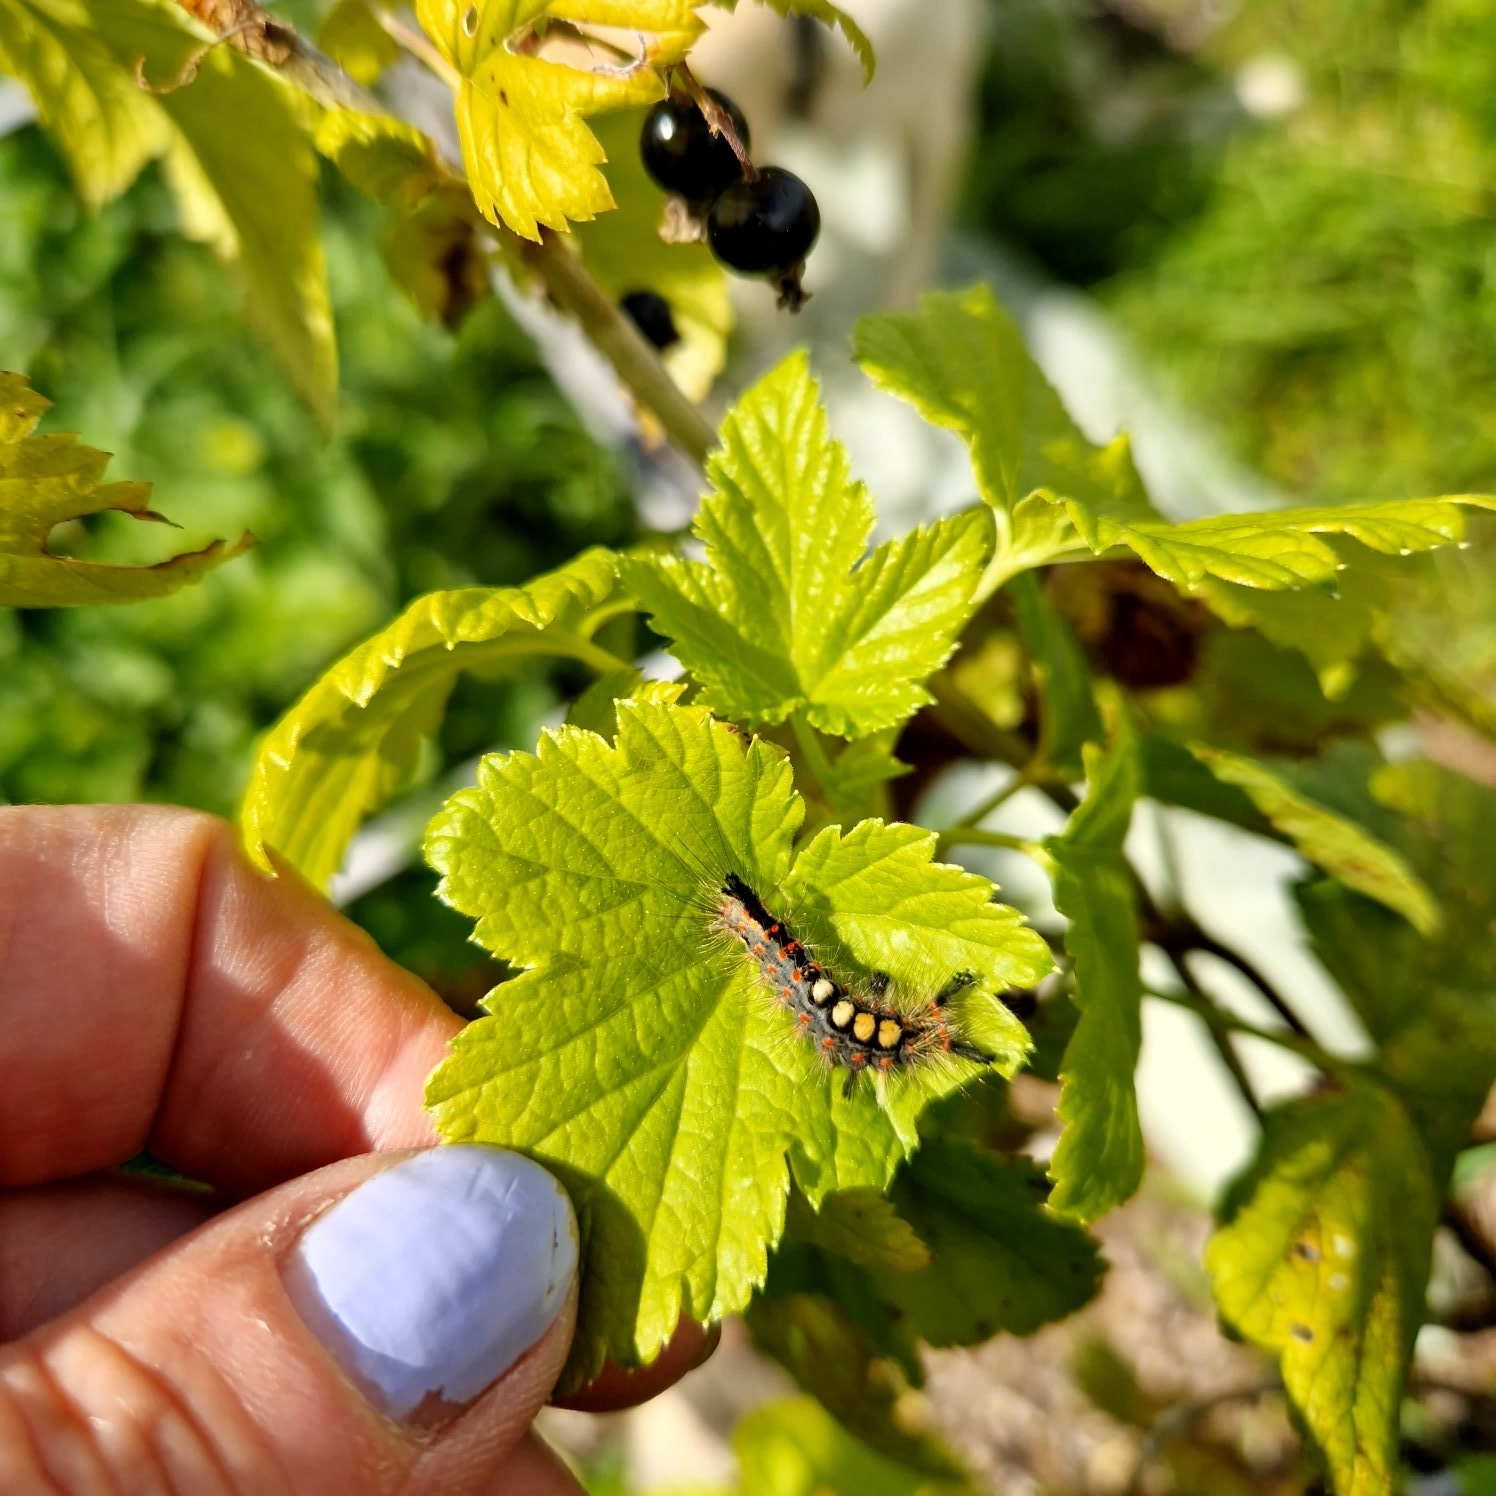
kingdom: Animalia
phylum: Arthropoda
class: Insecta
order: Lepidoptera
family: Erebidae
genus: Orgyia
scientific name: Orgyia antiqua
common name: Vapourer
